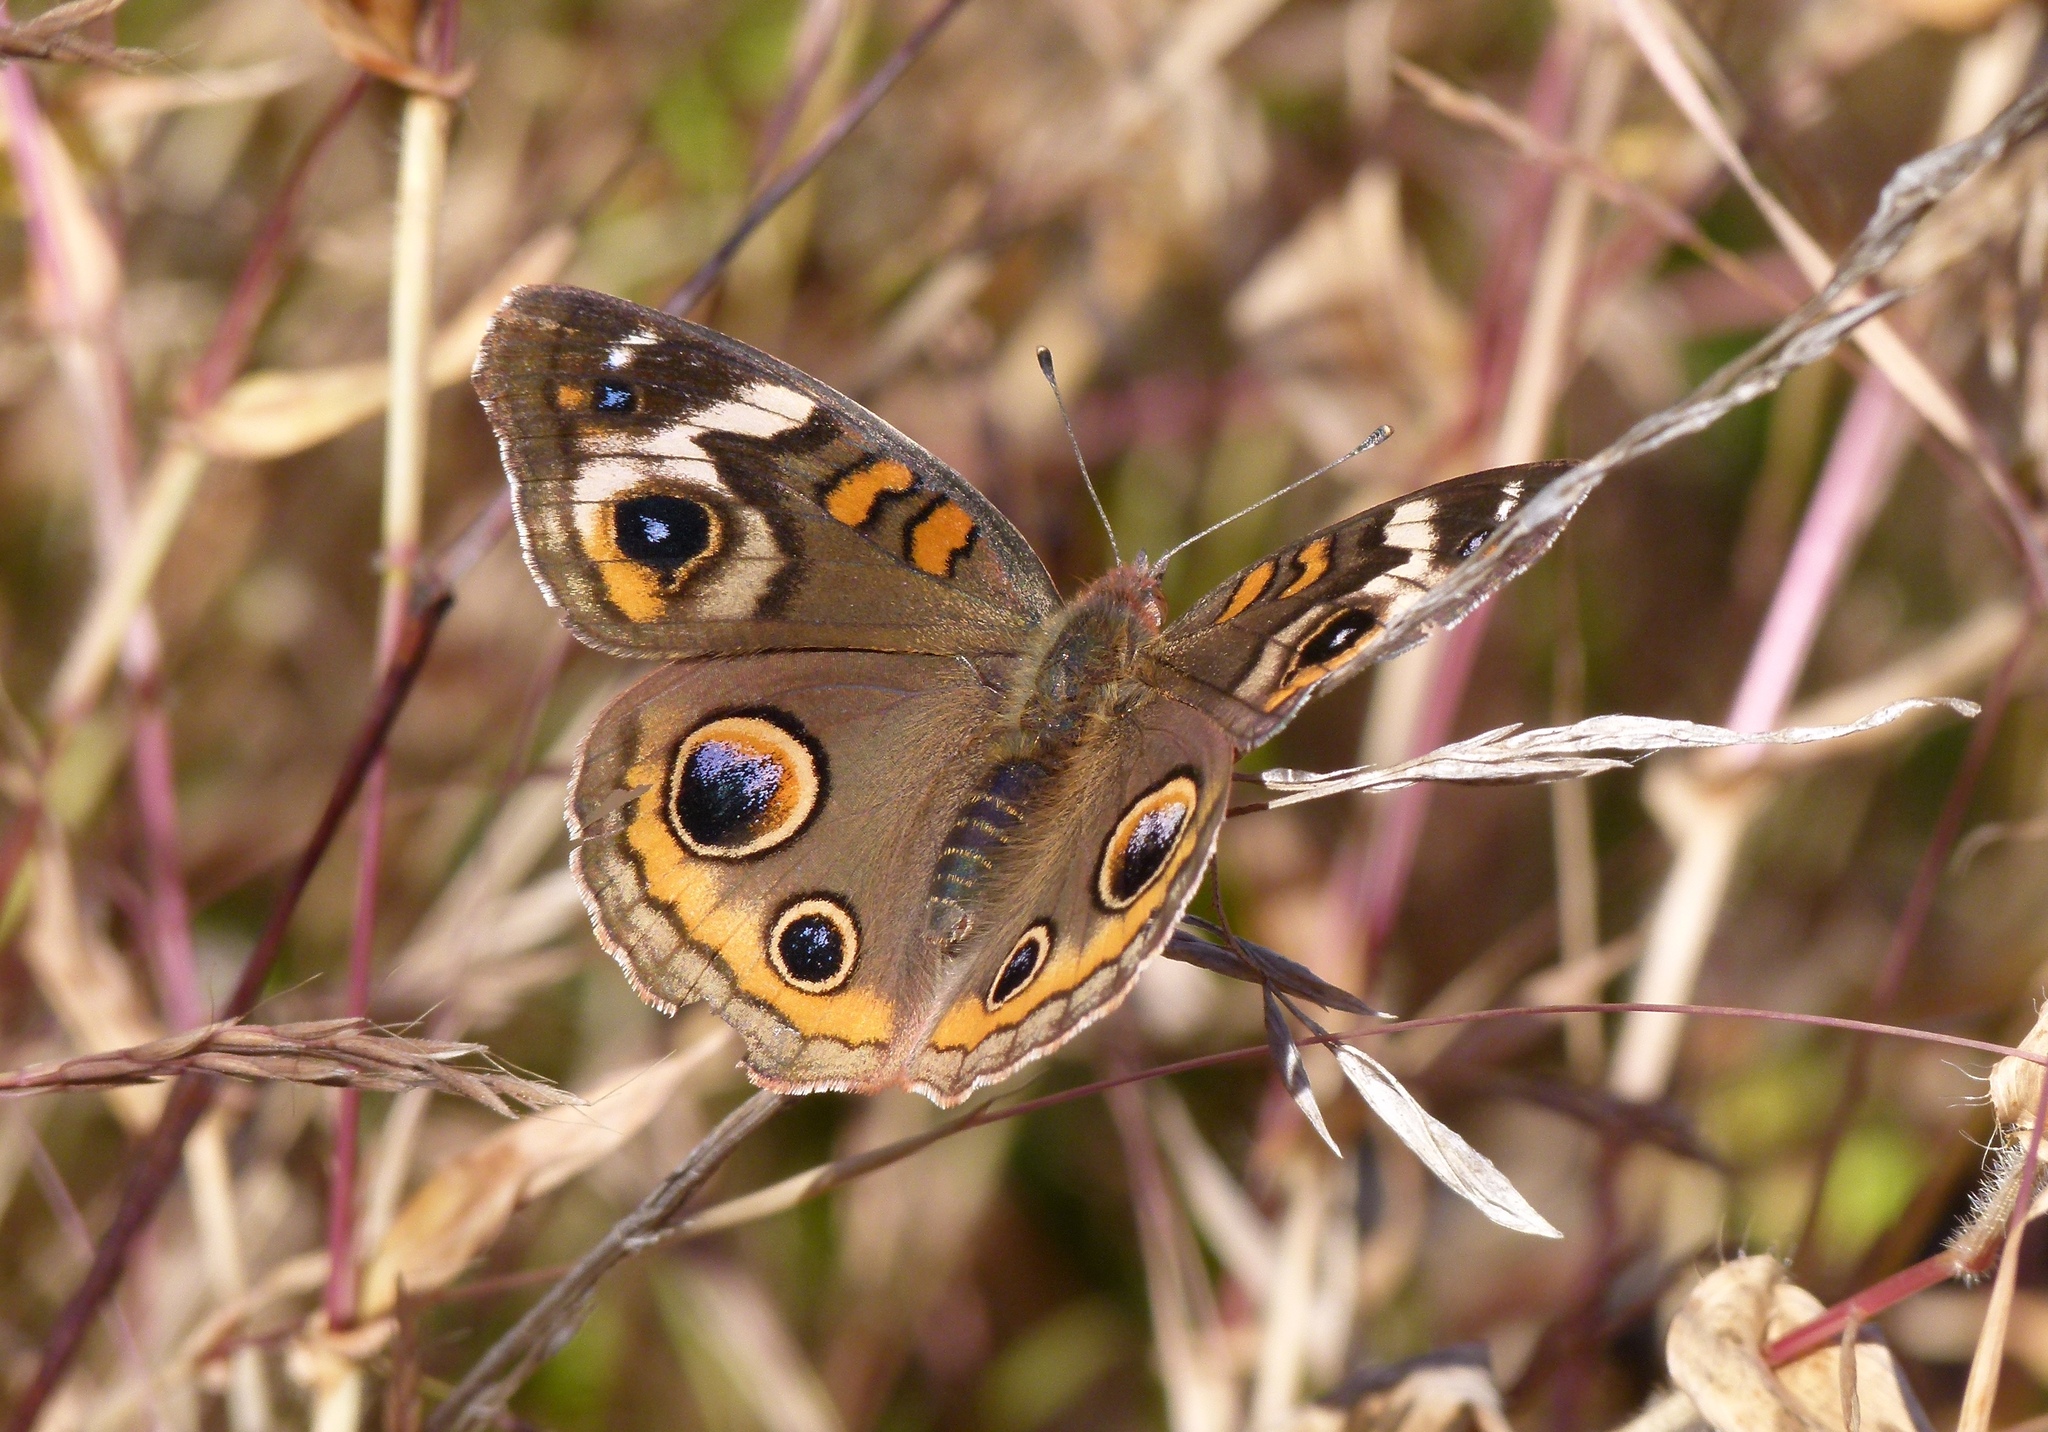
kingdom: Animalia
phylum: Arthropoda
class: Insecta
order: Lepidoptera
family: Nymphalidae
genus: Junonia
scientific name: Junonia coenia
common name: Common buckeye
